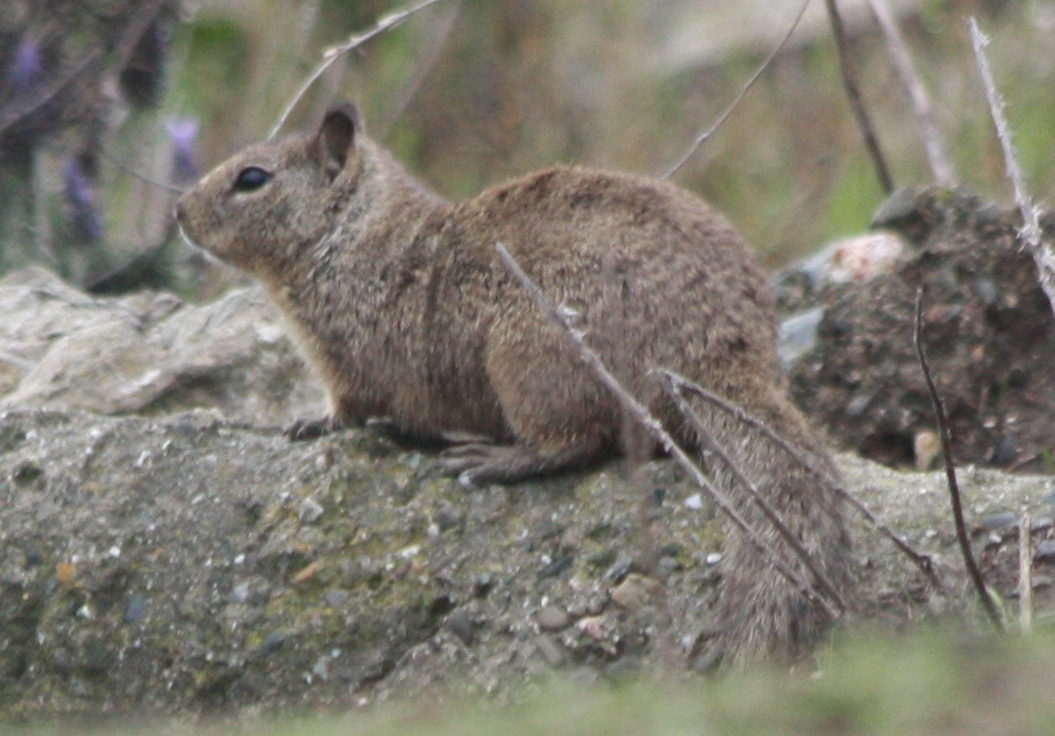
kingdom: Animalia
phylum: Chordata
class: Mammalia
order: Rodentia
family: Sciuridae
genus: Otospermophilus
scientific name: Otospermophilus beecheyi
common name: California ground squirrel
